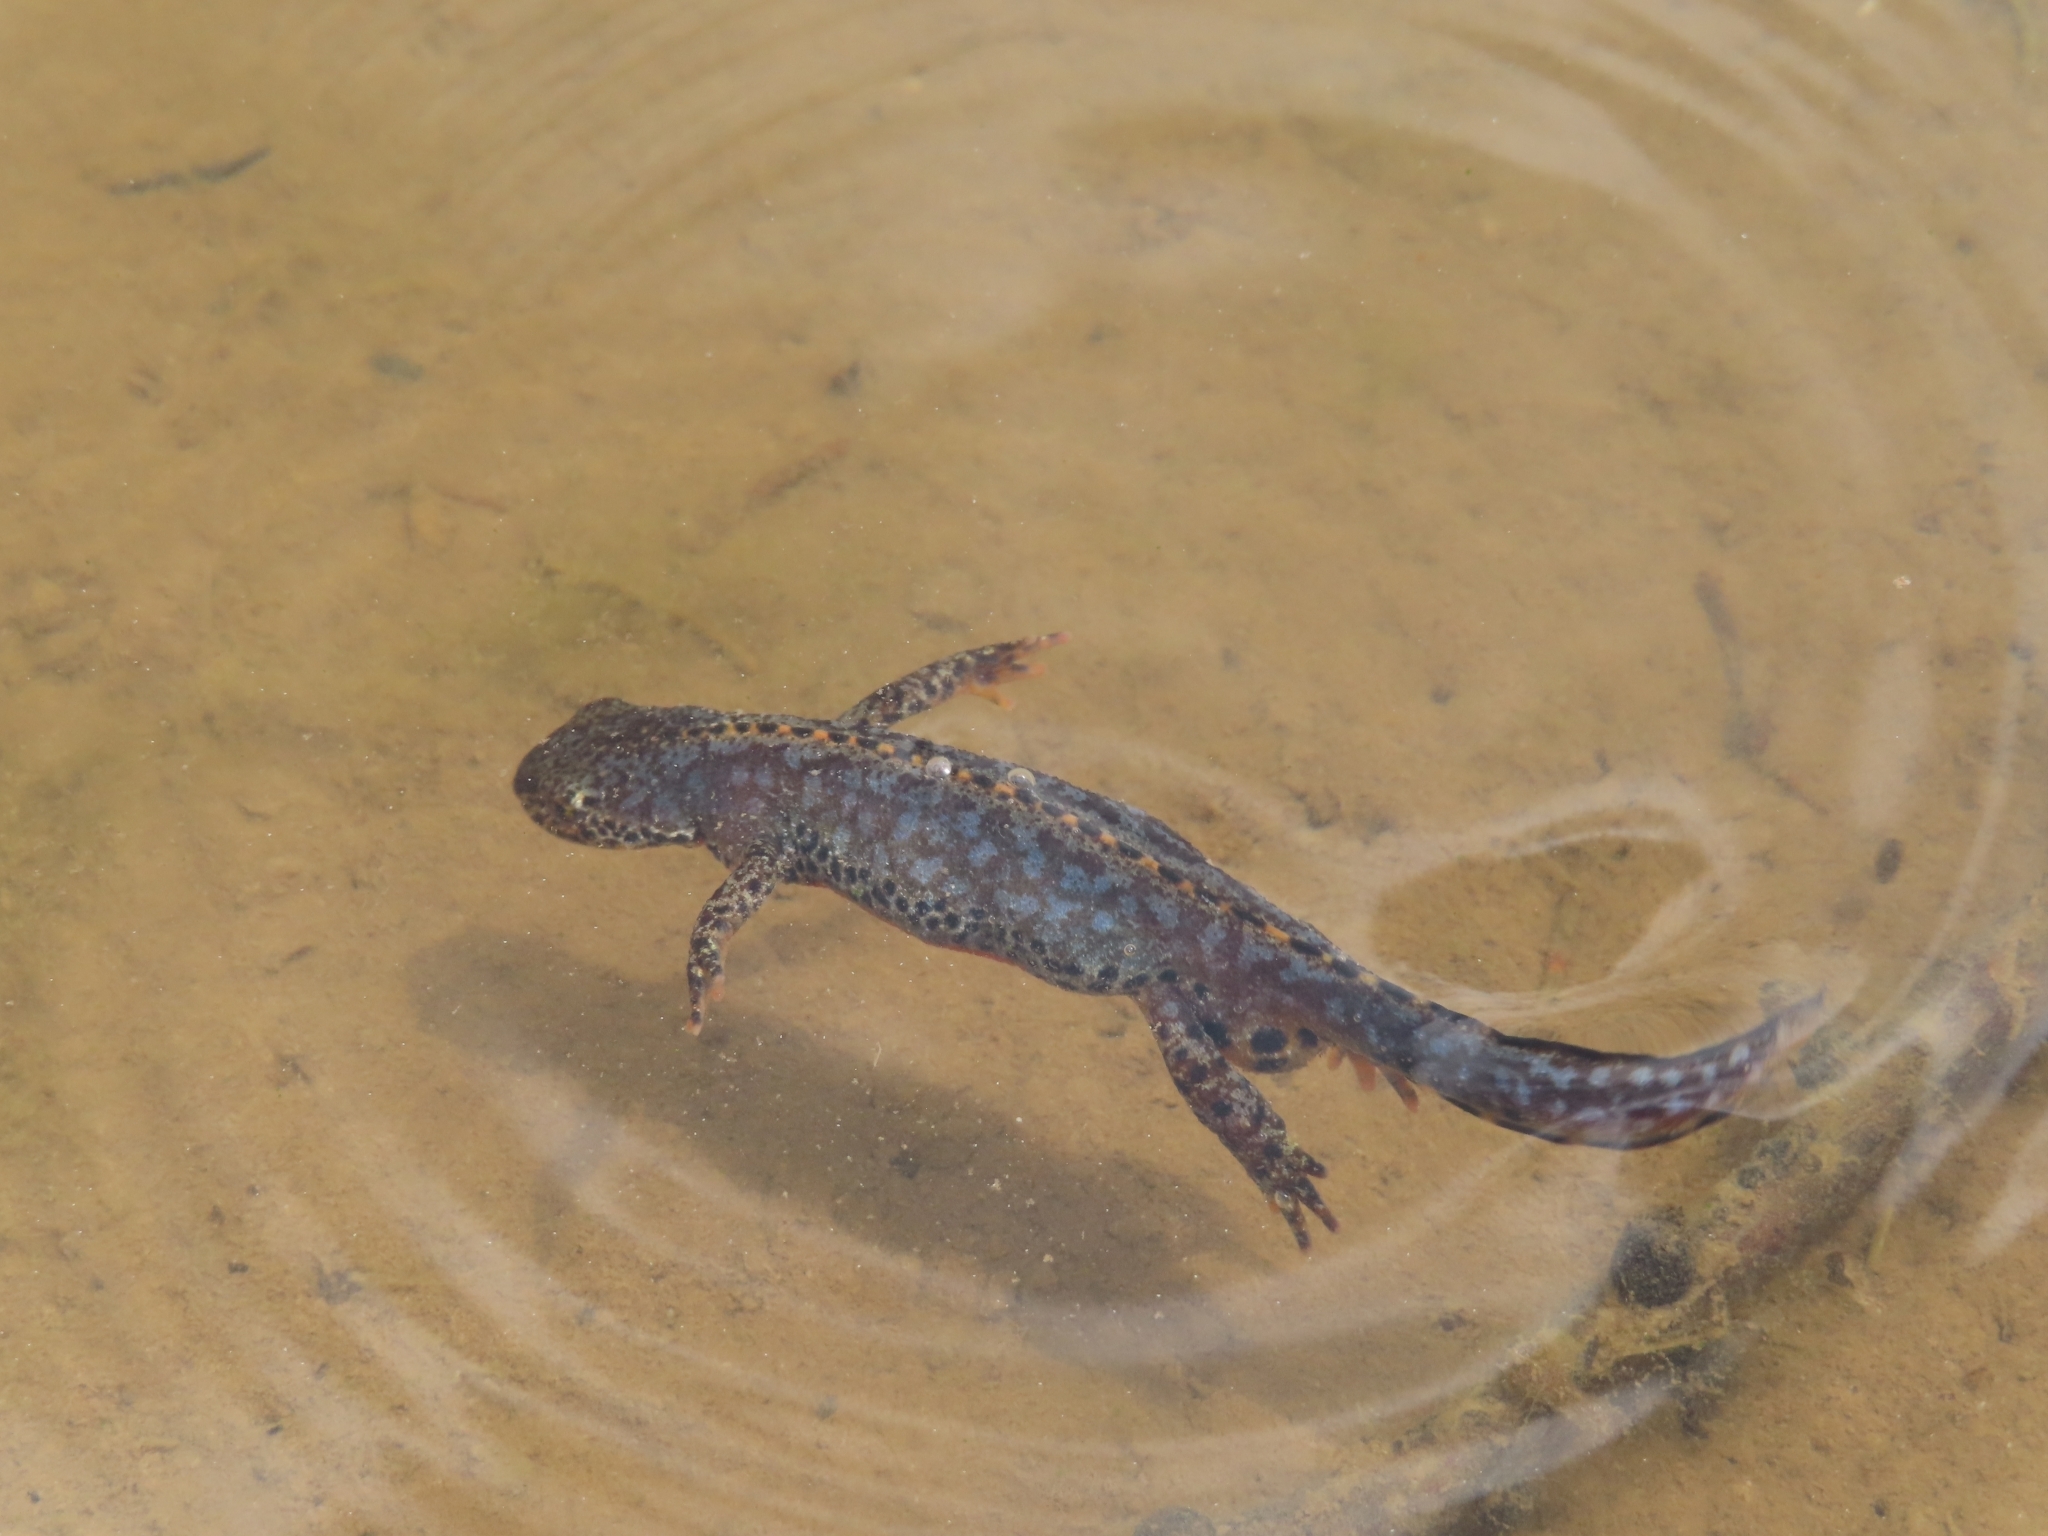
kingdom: Animalia
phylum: Chordata
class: Amphibia
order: Caudata
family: Salamandridae
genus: Ichthyosaura
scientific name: Ichthyosaura alpestris
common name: Alpine newt
